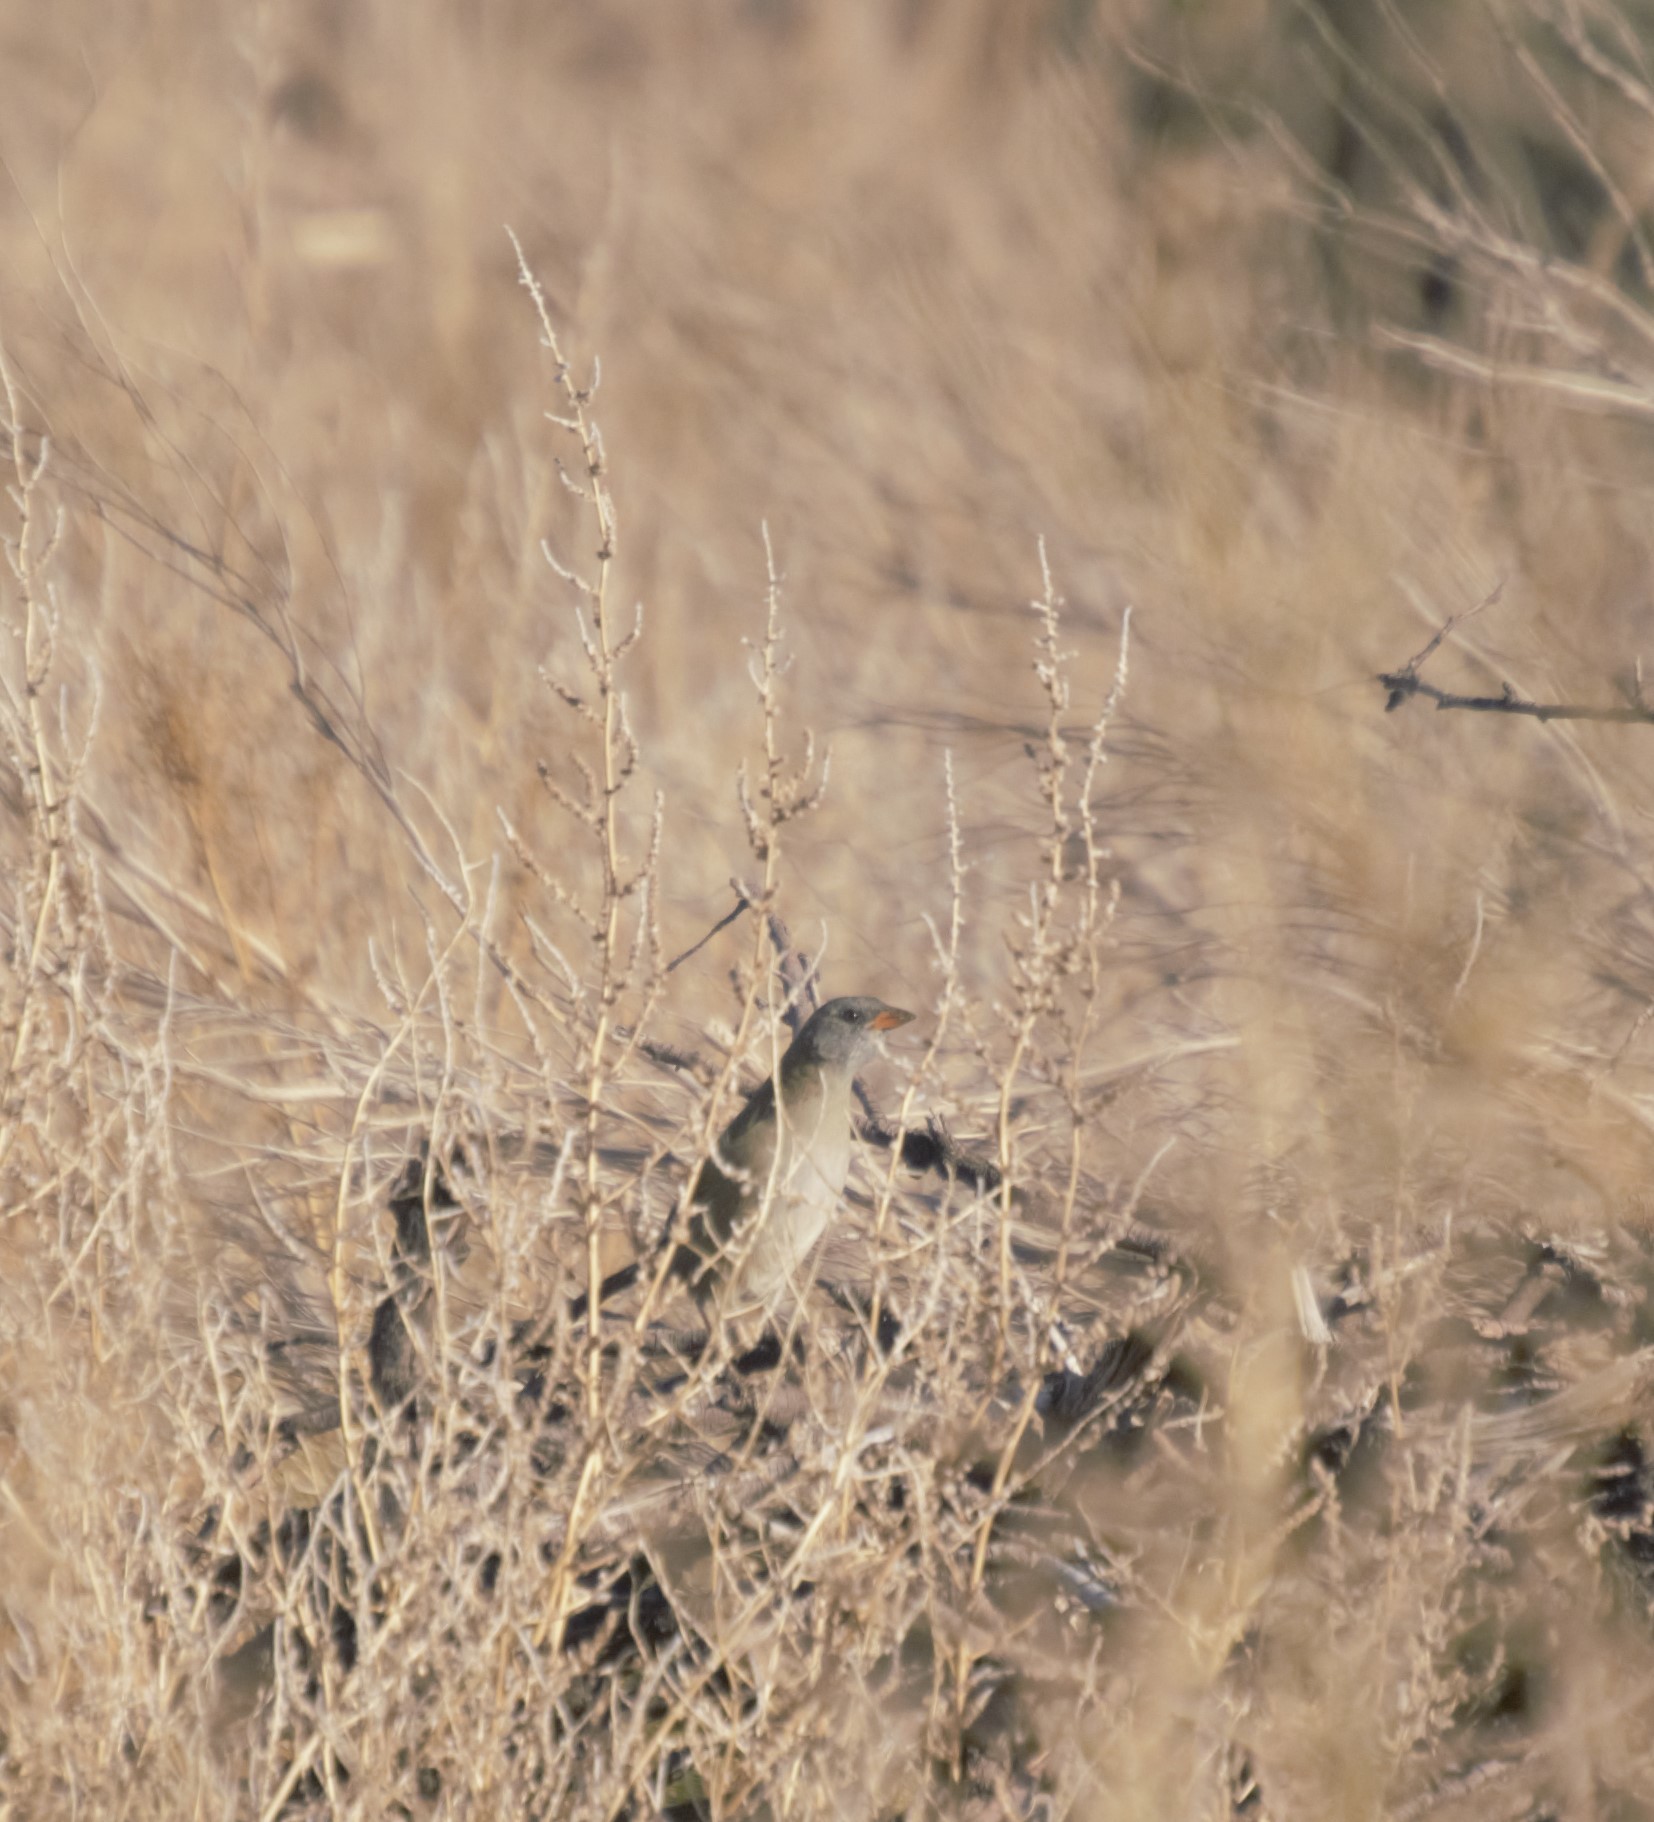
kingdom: Animalia
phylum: Chordata
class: Aves
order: Passeriformes
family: Thraupidae
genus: Embernagra
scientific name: Embernagra platensis
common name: Pampa finch
